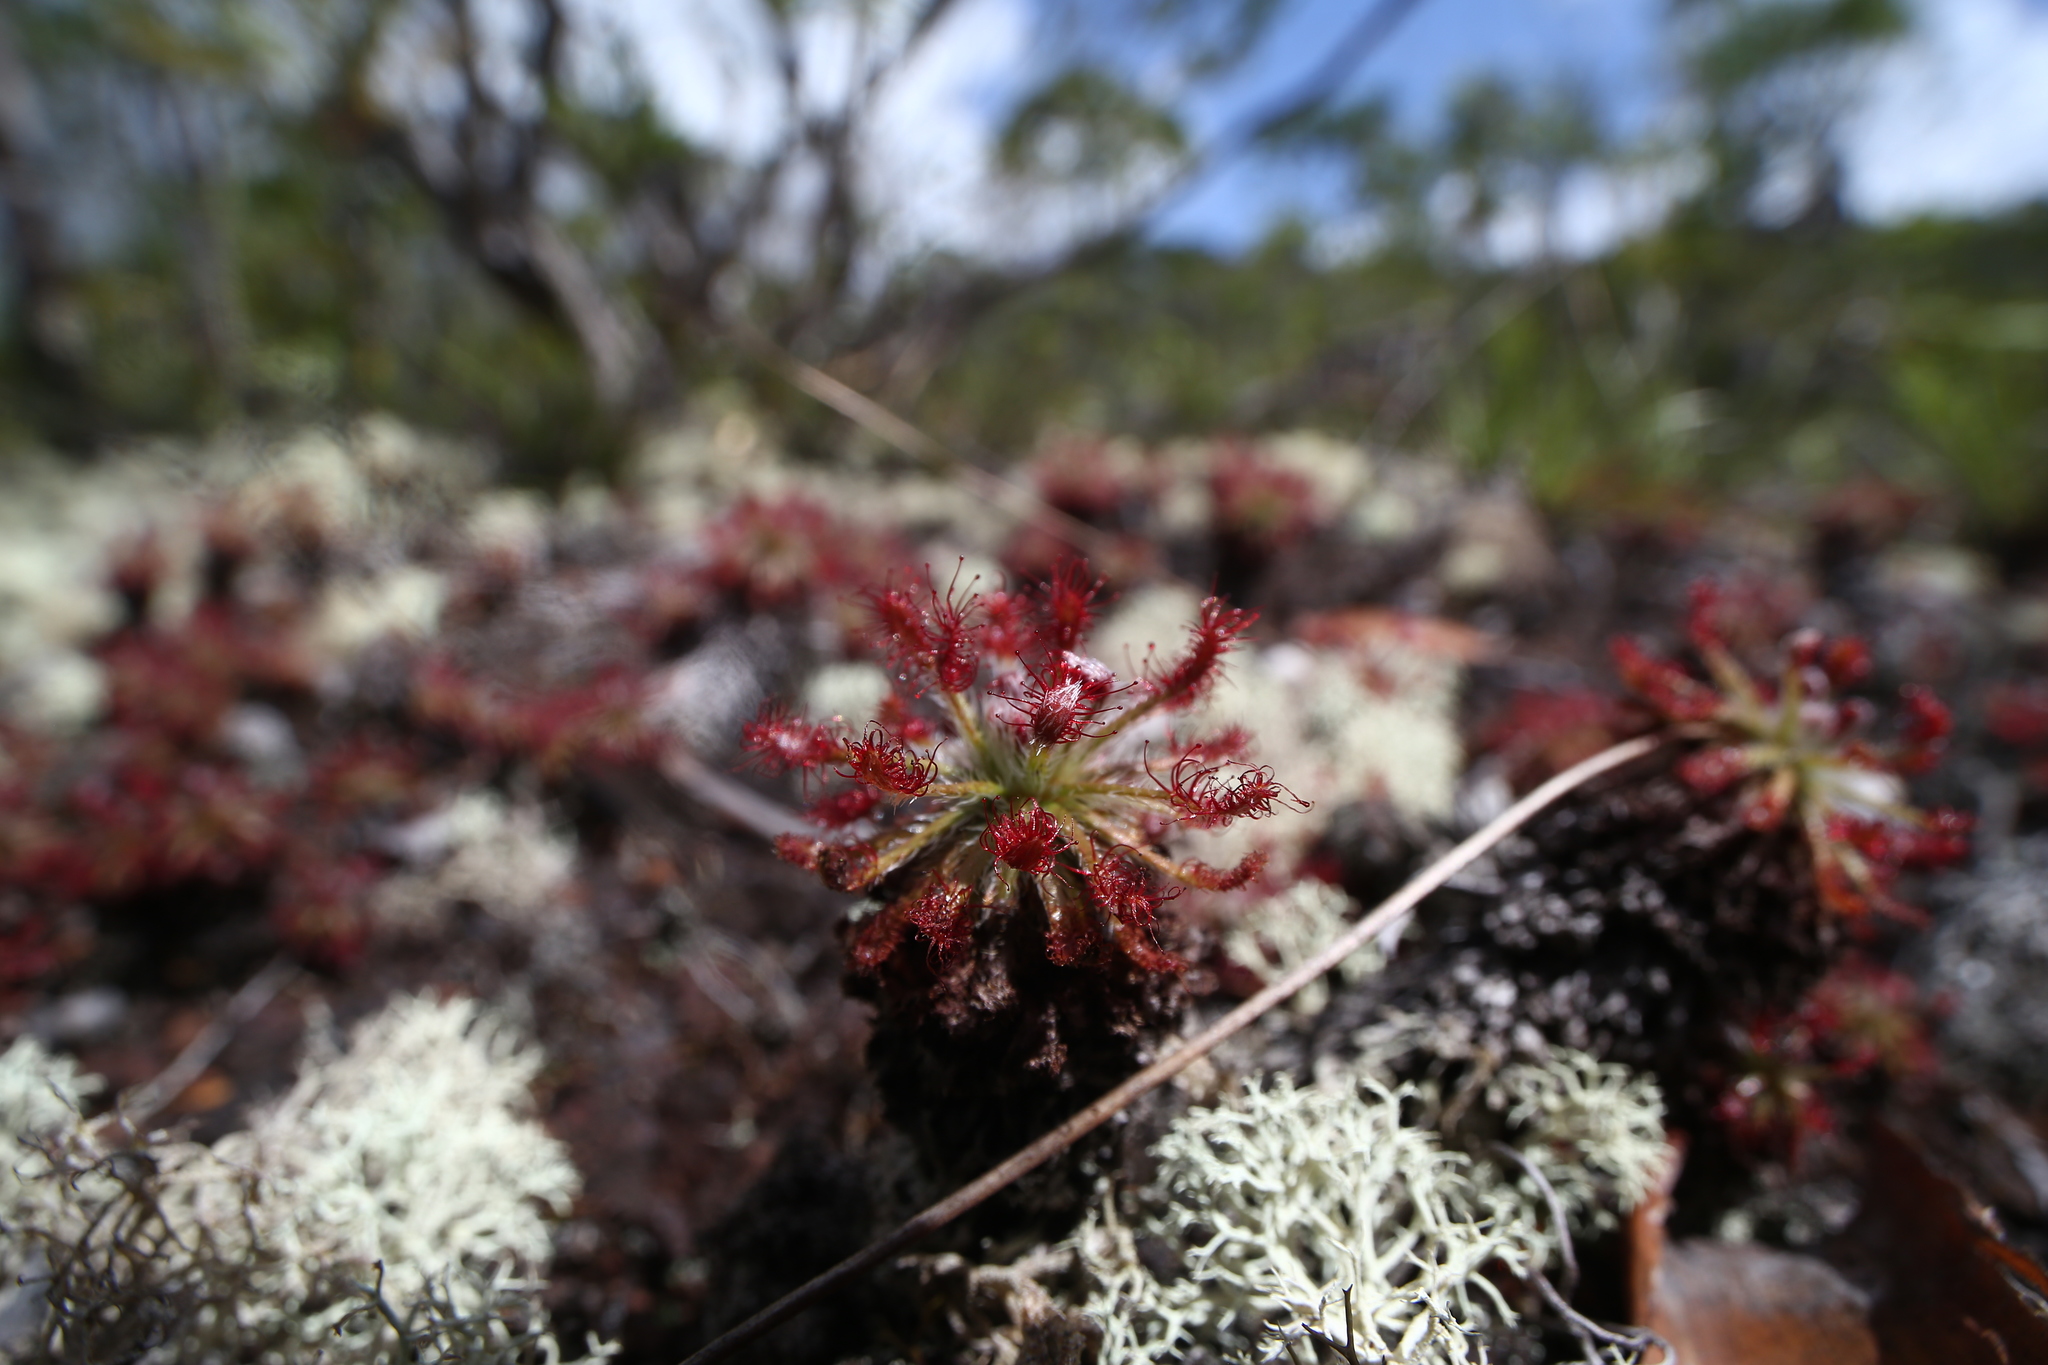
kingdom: Plantae
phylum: Tracheophyta
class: Magnoliopsida
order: Caryophyllales
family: Droseraceae
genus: Drosera
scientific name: Drosera neocaledonica
